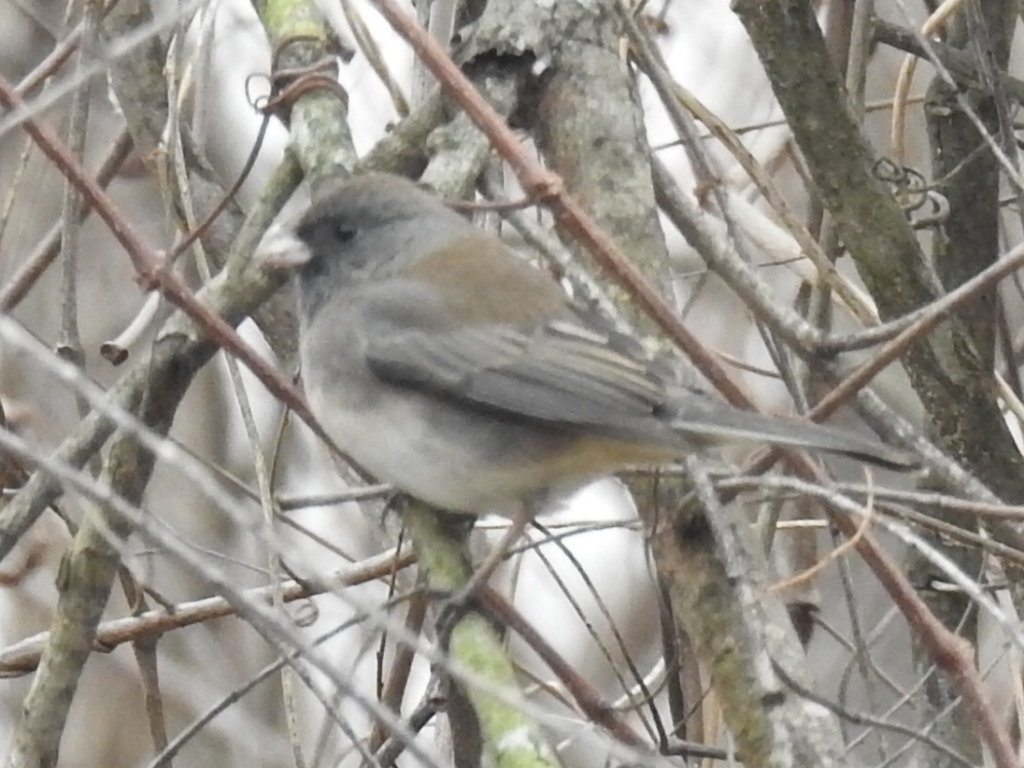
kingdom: Animalia
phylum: Chordata
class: Aves
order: Passeriformes
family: Passerellidae
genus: Junco
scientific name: Junco hyemalis
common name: Dark-eyed junco
